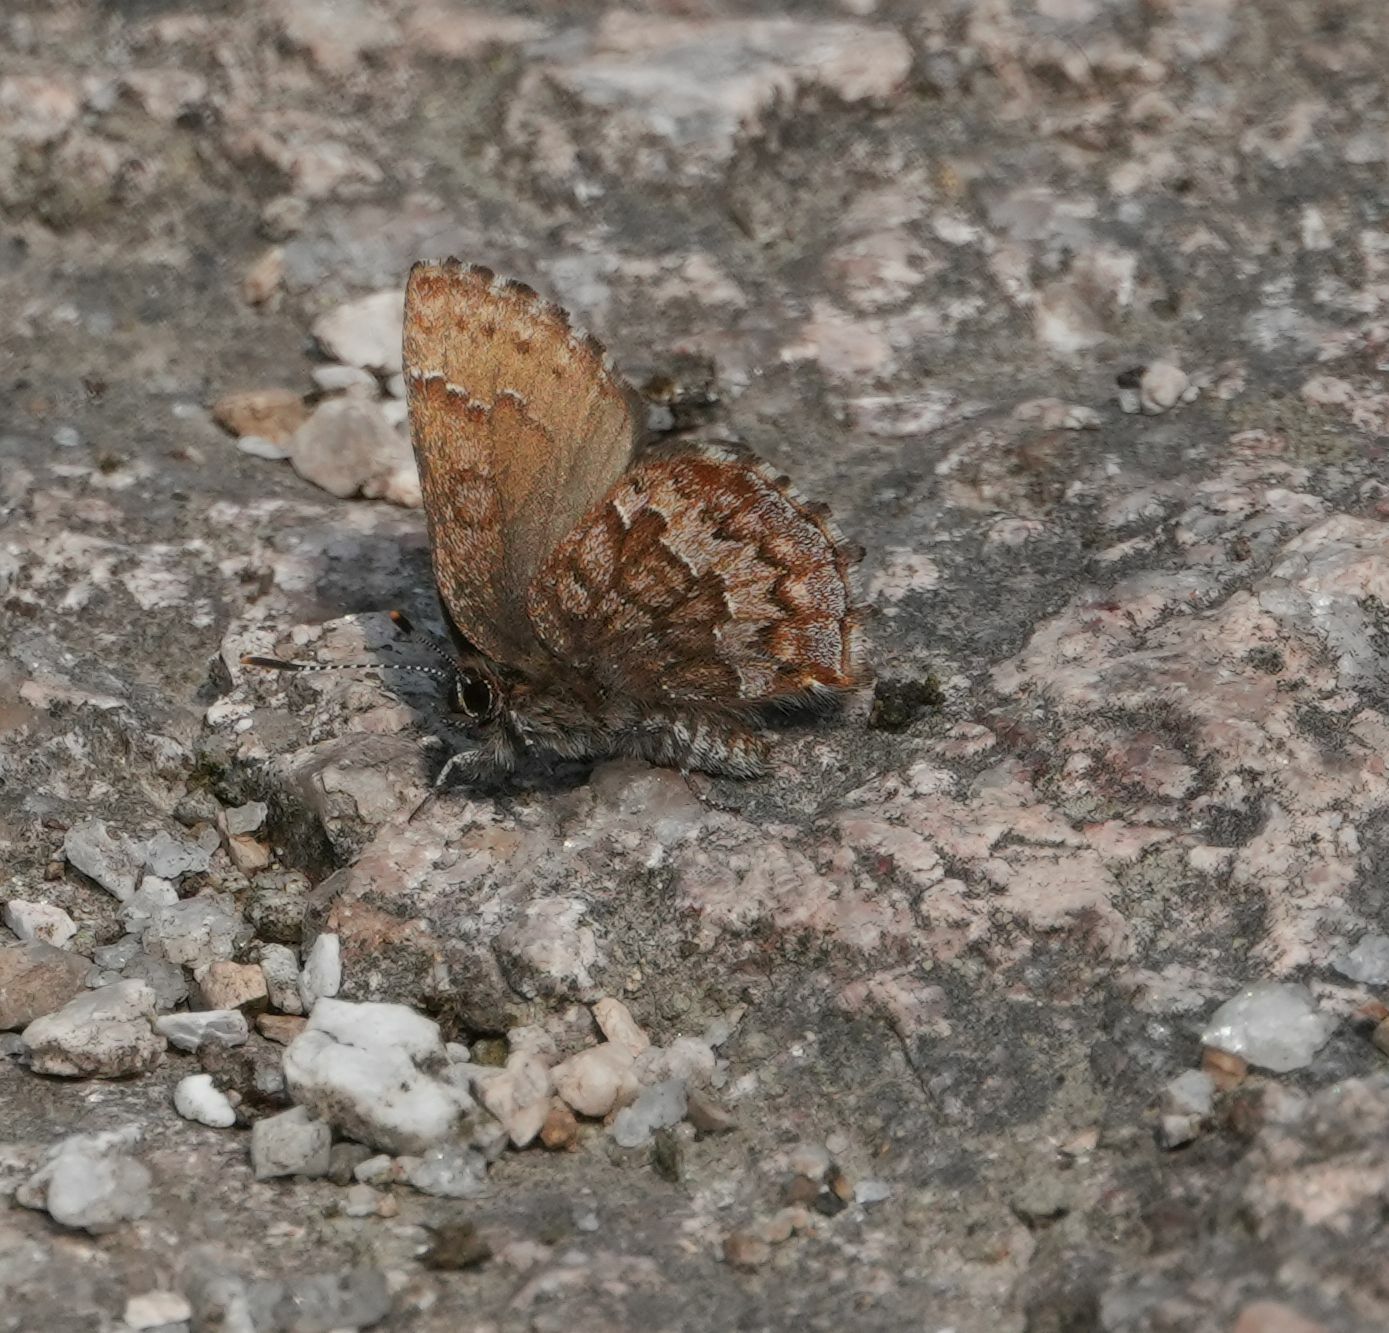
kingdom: Animalia
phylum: Arthropoda
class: Insecta
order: Lepidoptera
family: Lycaenidae
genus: Incisalia
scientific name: Incisalia niphon
